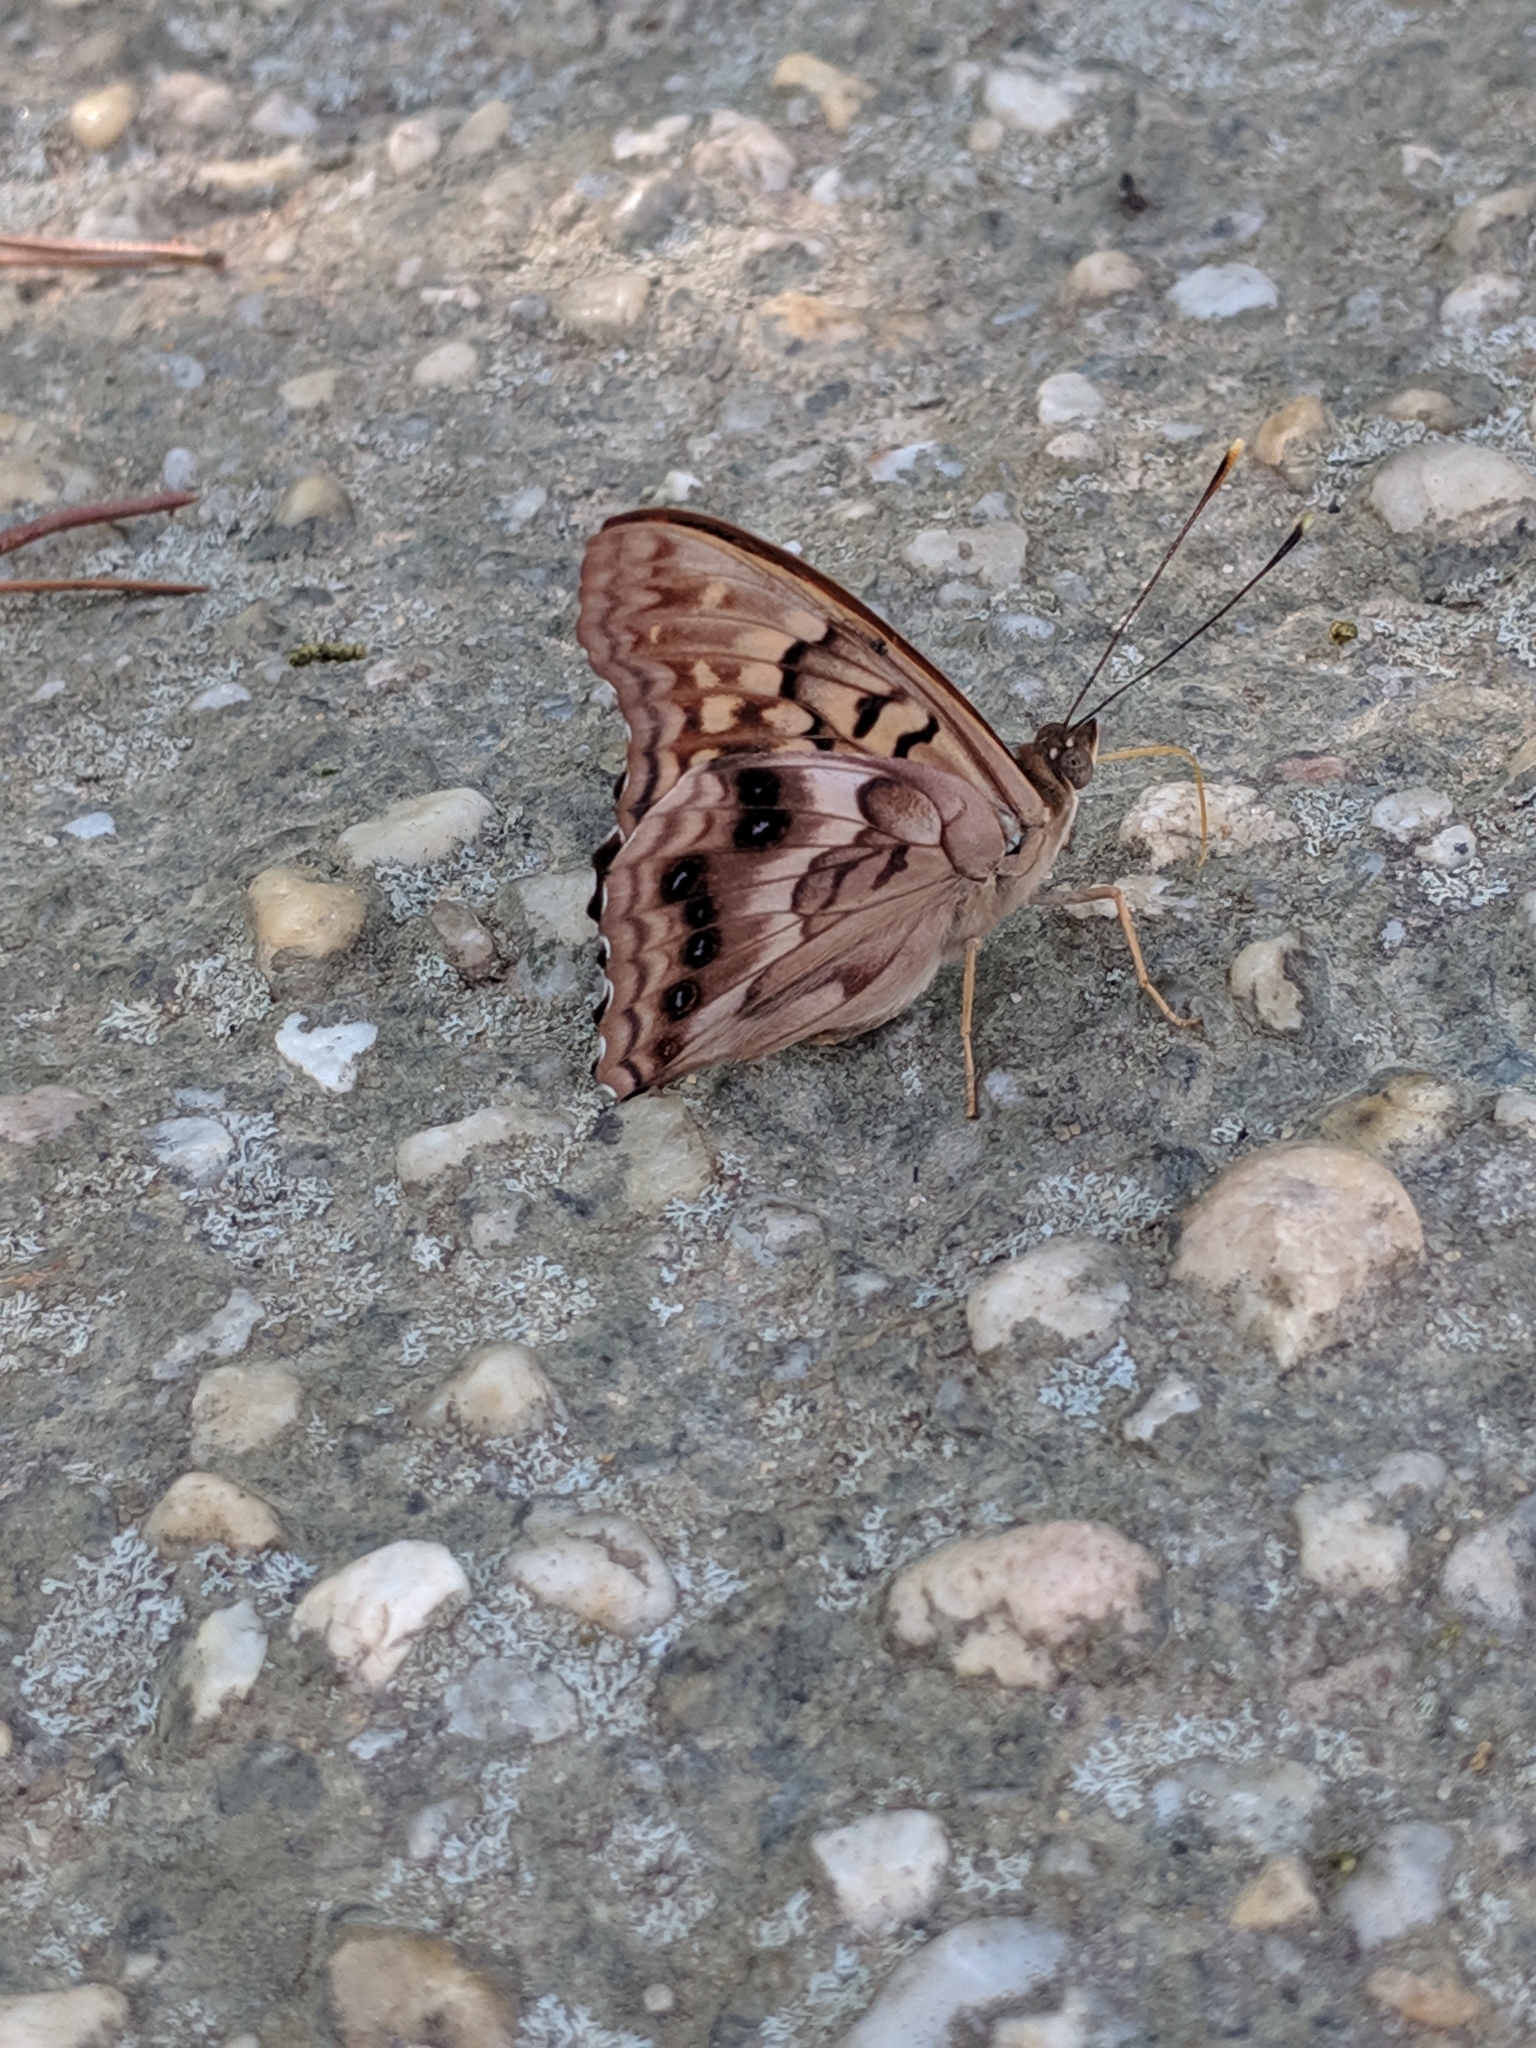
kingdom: Animalia
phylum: Arthropoda
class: Insecta
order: Lepidoptera
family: Nymphalidae
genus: Asterocampa
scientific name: Asterocampa clyton
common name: Tawny emperor
